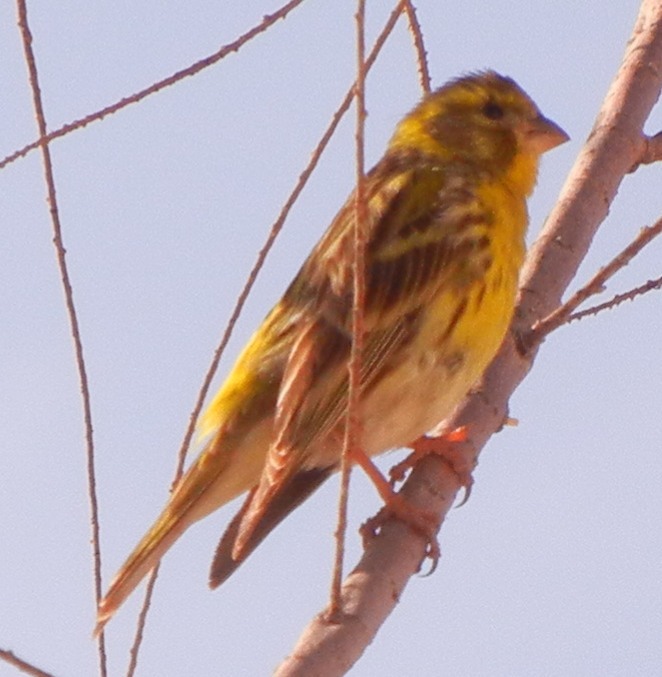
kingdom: Animalia
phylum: Chordata
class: Aves
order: Passeriformes
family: Fringillidae
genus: Serinus
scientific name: Serinus serinus
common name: European serin
